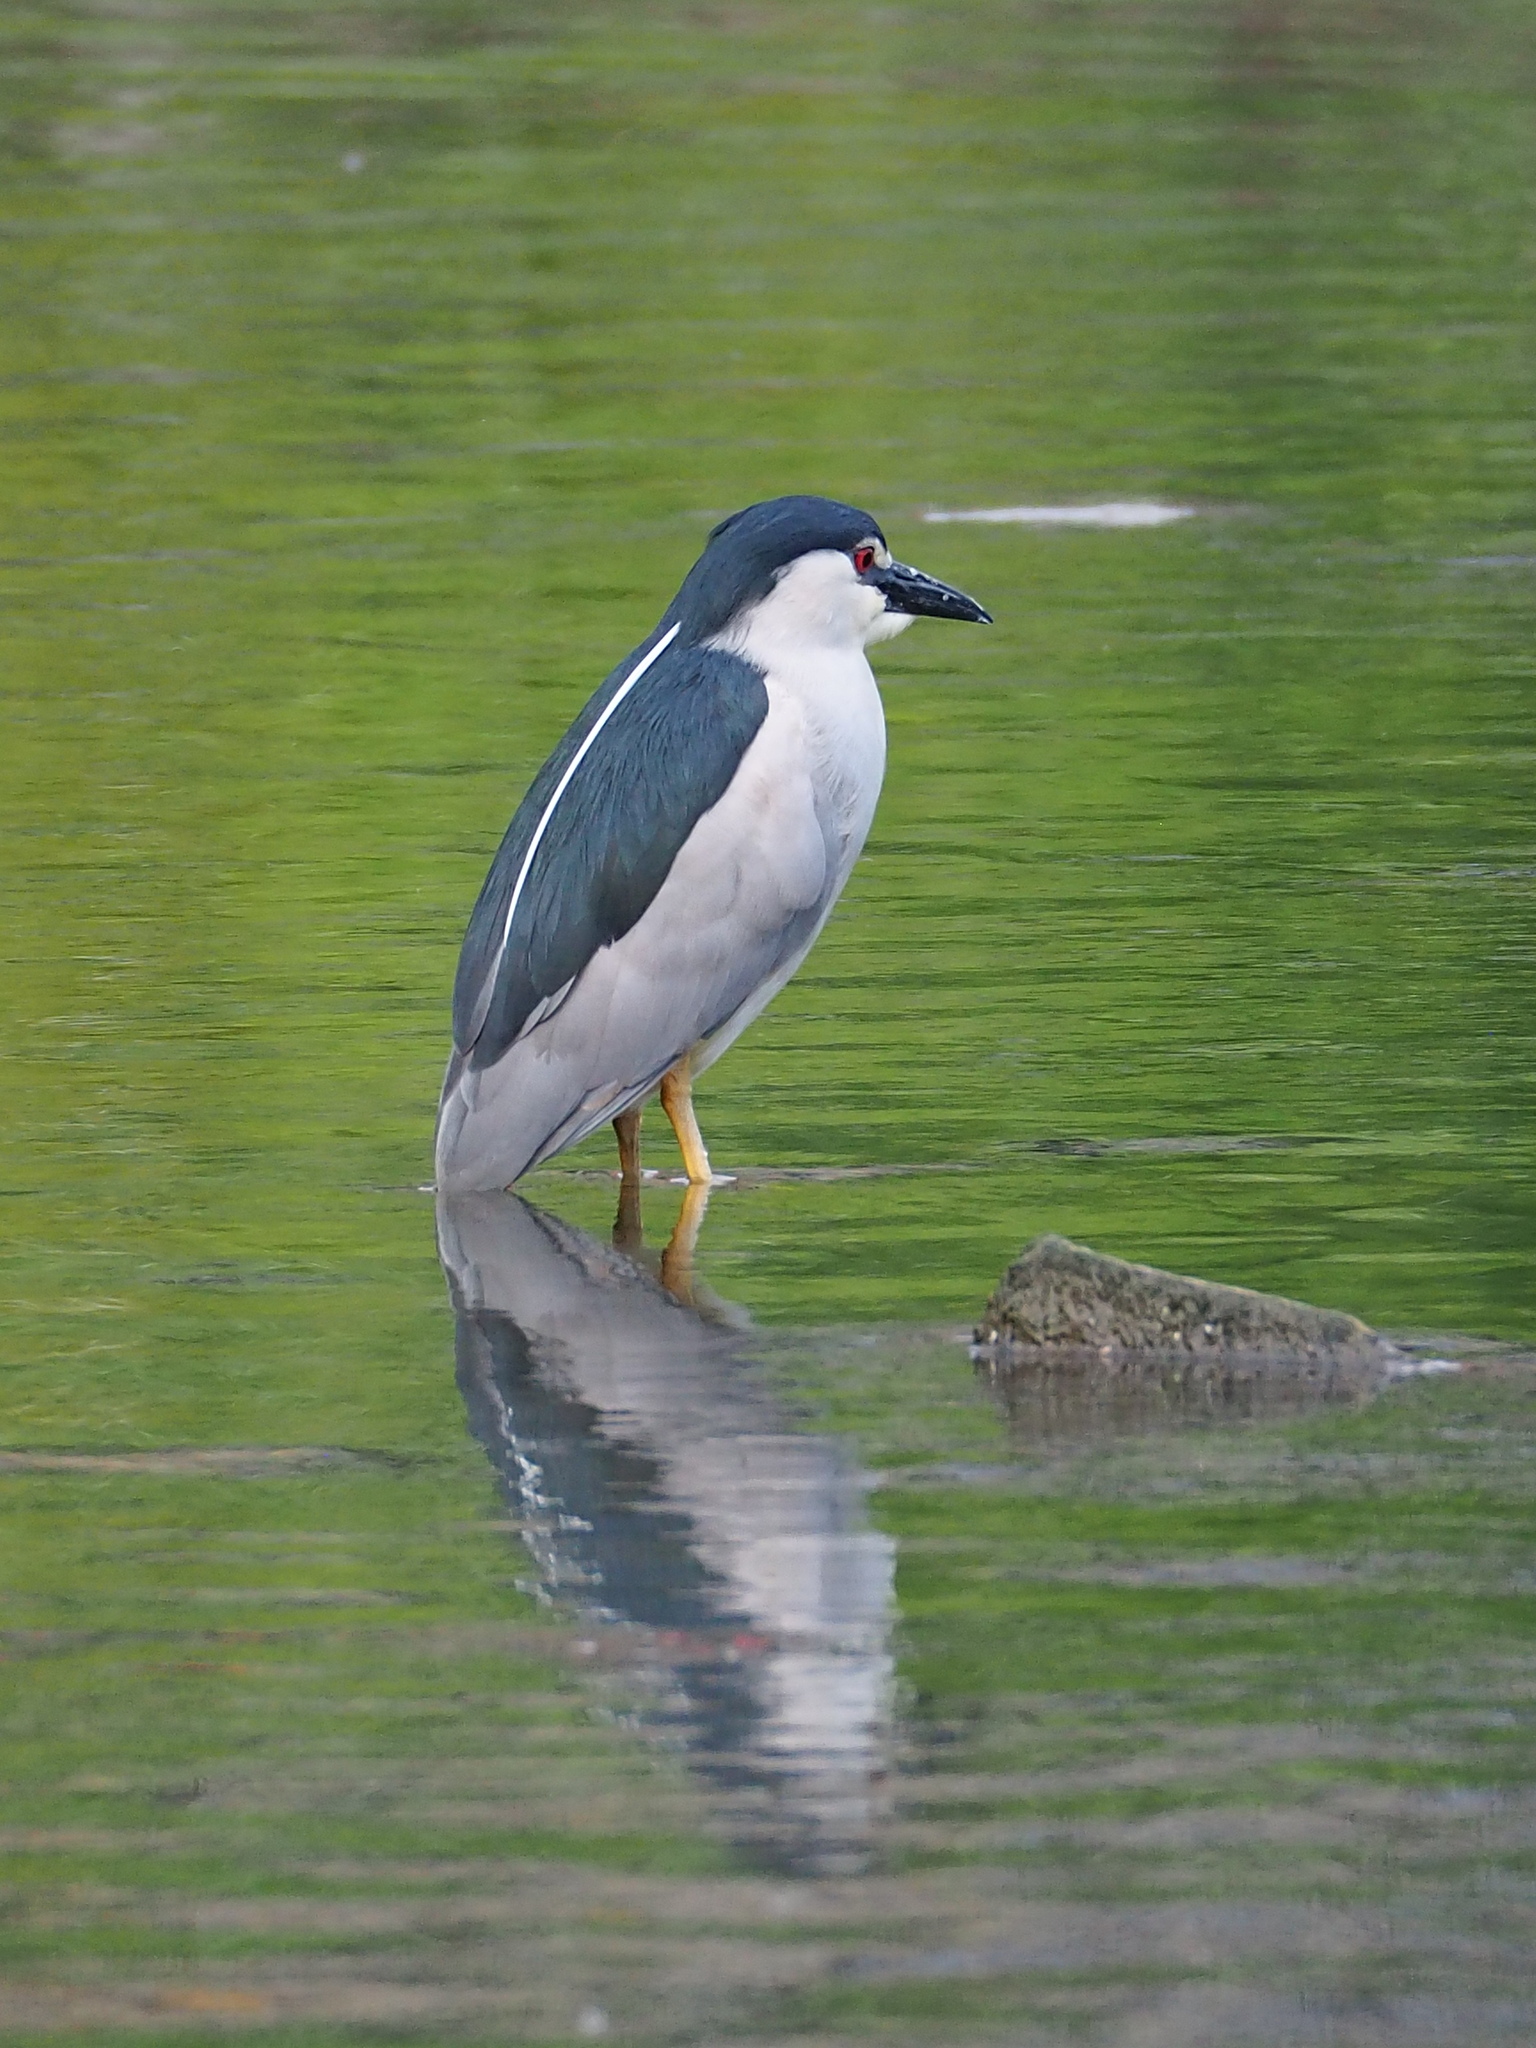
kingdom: Animalia
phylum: Chordata
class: Aves
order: Pelecaniformes
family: Ardeidae
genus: Nycticorax
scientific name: Nycticorax nycticorax
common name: Black-crowned night heron
